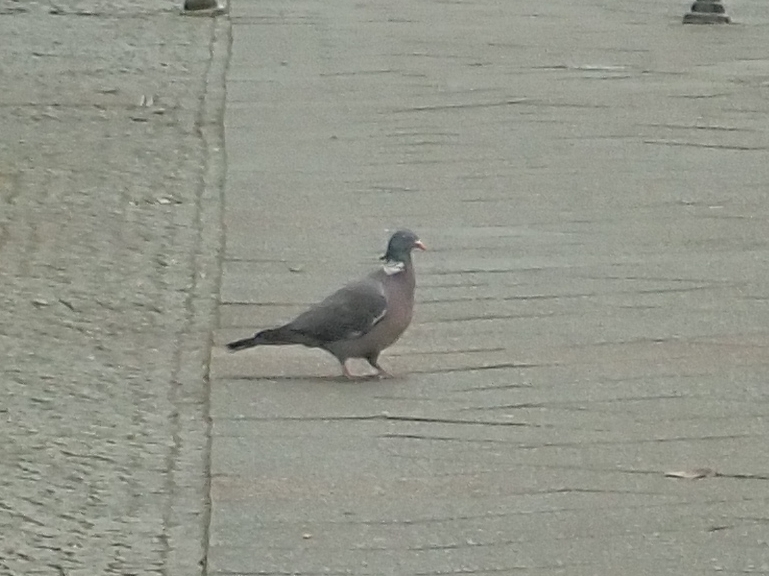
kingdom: Animalia
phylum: Chordata
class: Aves
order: Columbiformes
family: Columbidae
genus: Columba
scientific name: Columba palumbus
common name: Common wood pigeon
